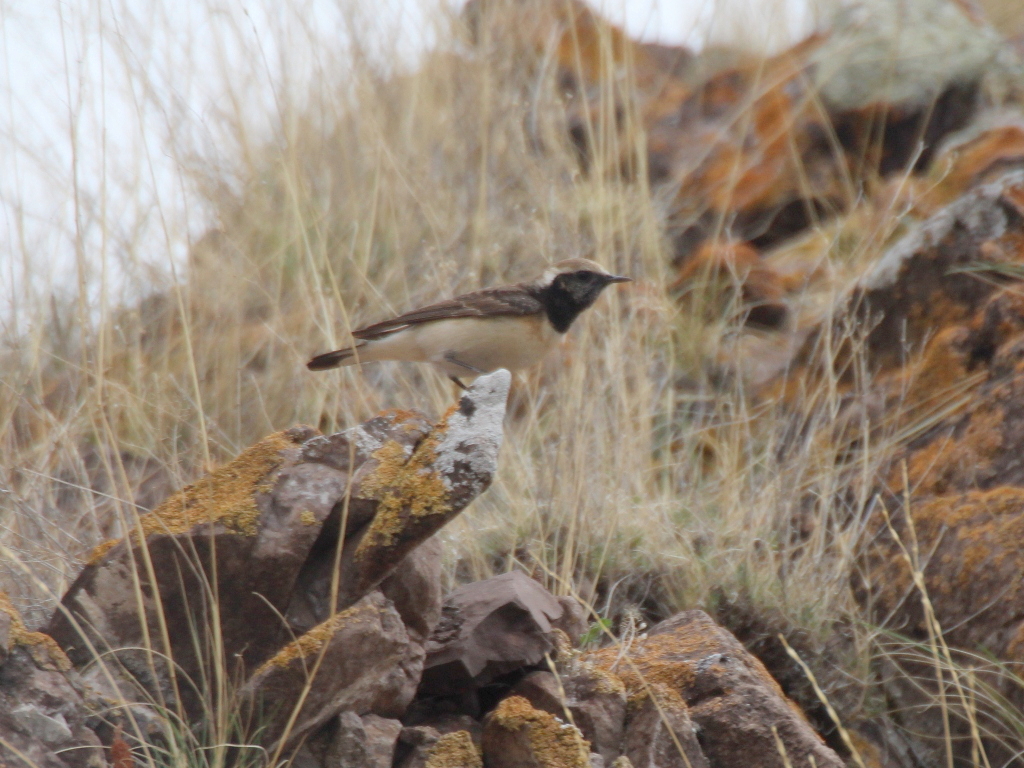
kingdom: Animalia
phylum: Chordata
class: Aves
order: Passeriformes
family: Muscicapidae
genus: Oenanthe
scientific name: Oenanthe pleschanka
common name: Pied wheatear
